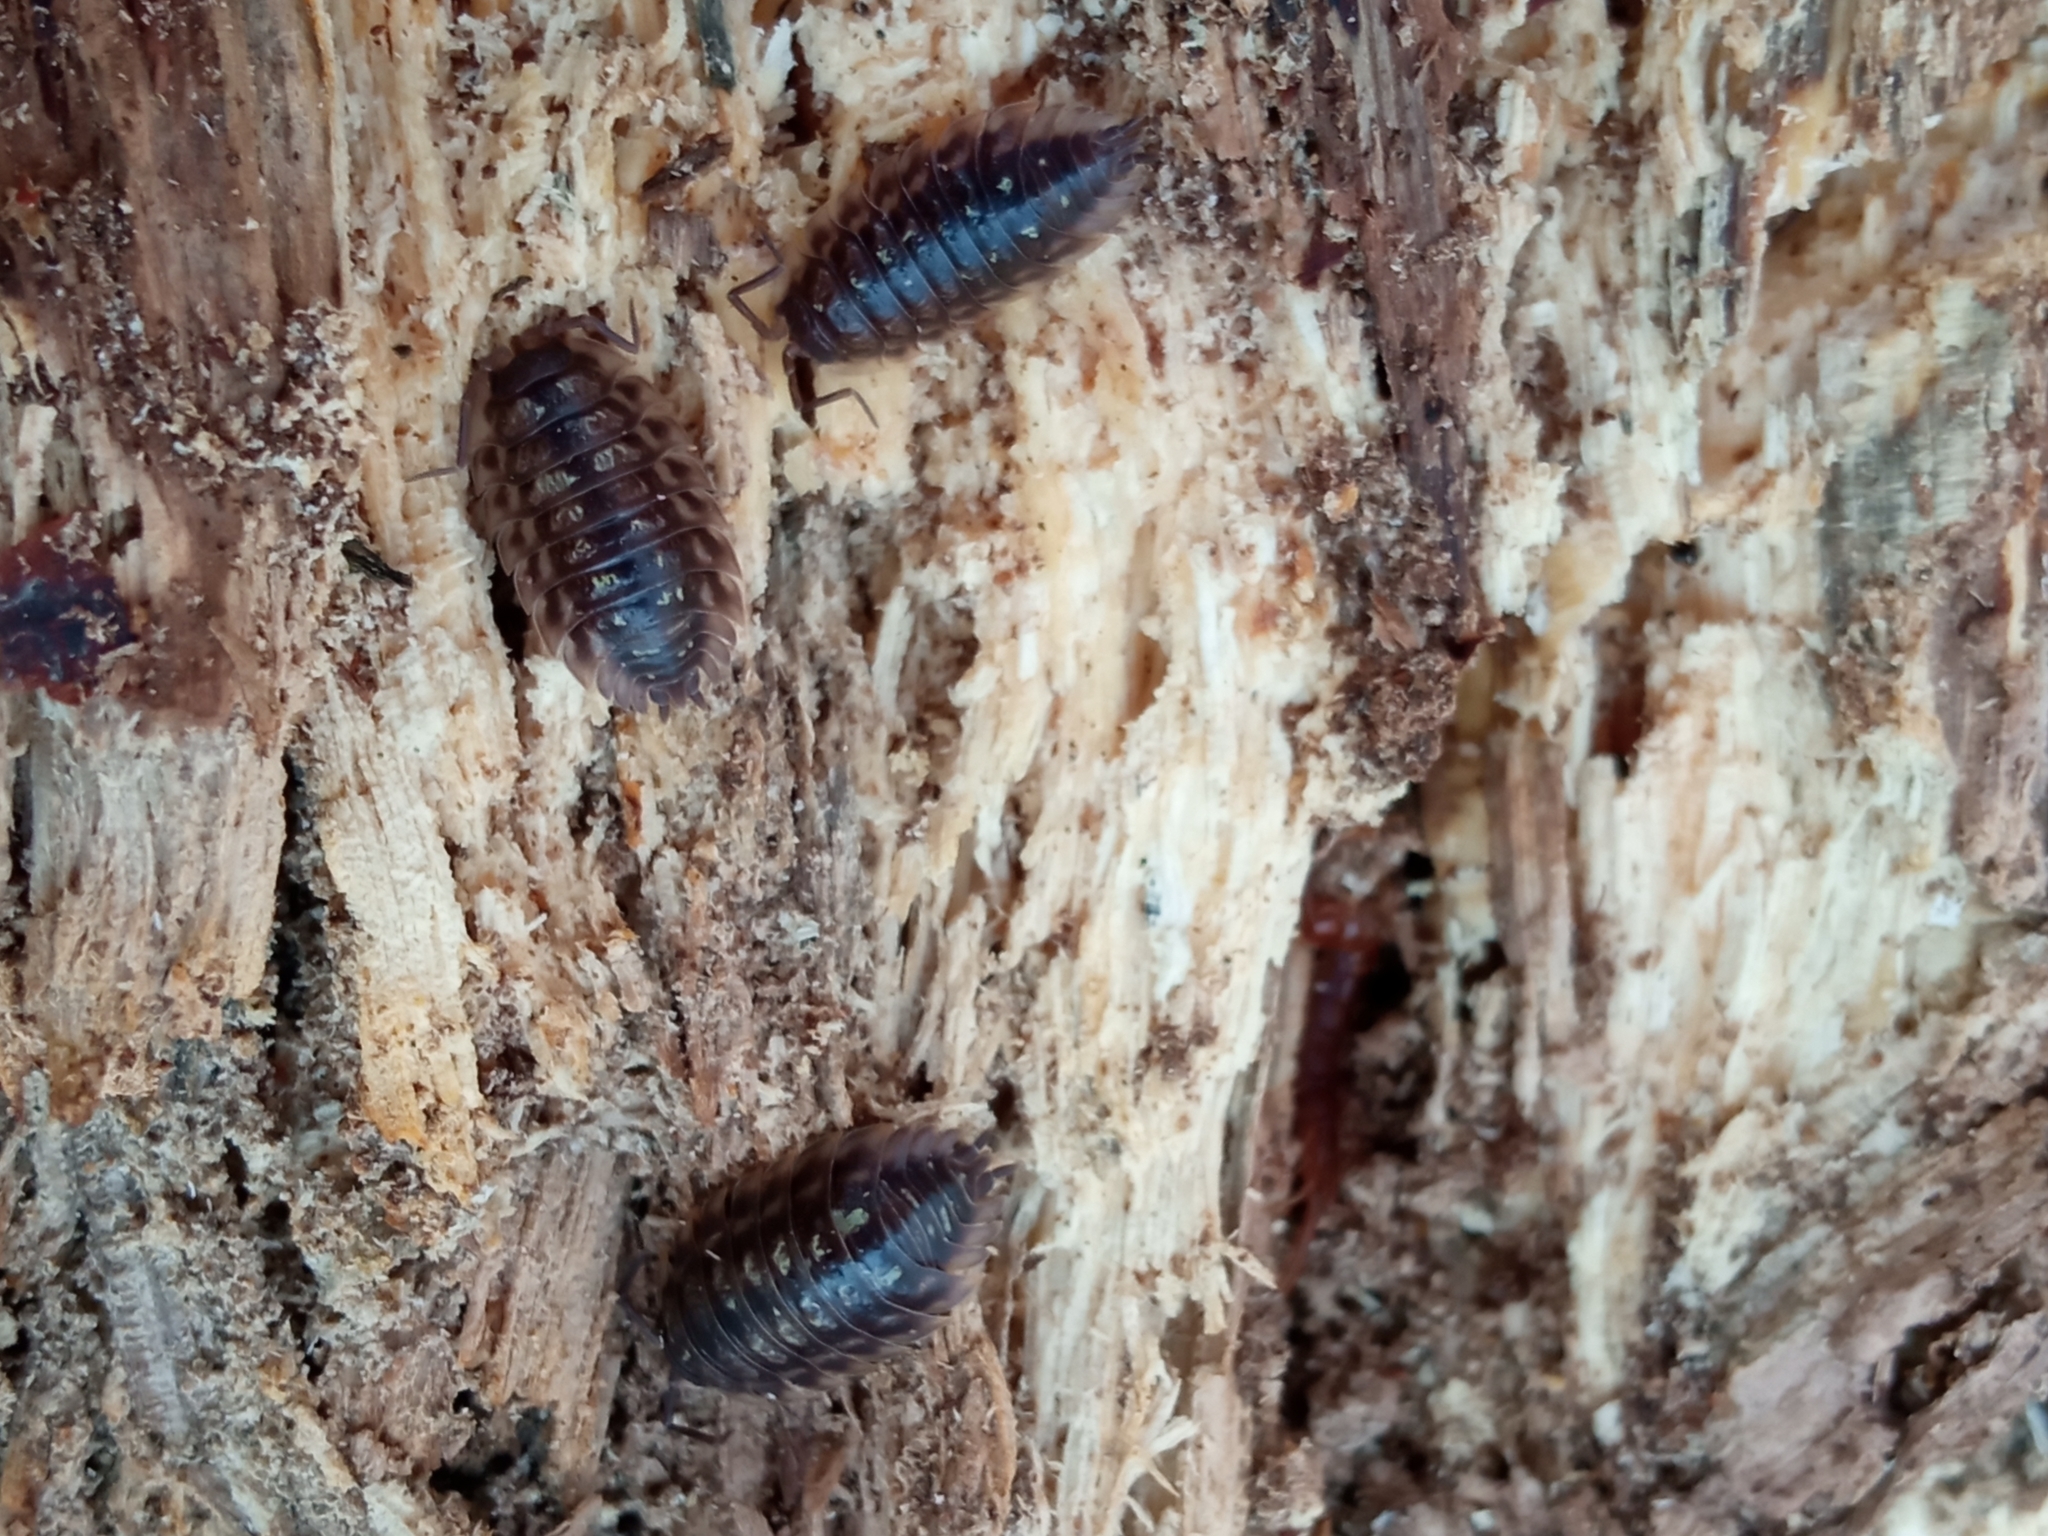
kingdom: Animalia
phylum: Arthropoda
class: Malacostraca
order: Isopoda
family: Oniscidae
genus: Oniscus
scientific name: Oniscus asellus
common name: Common shiny woodlouse
